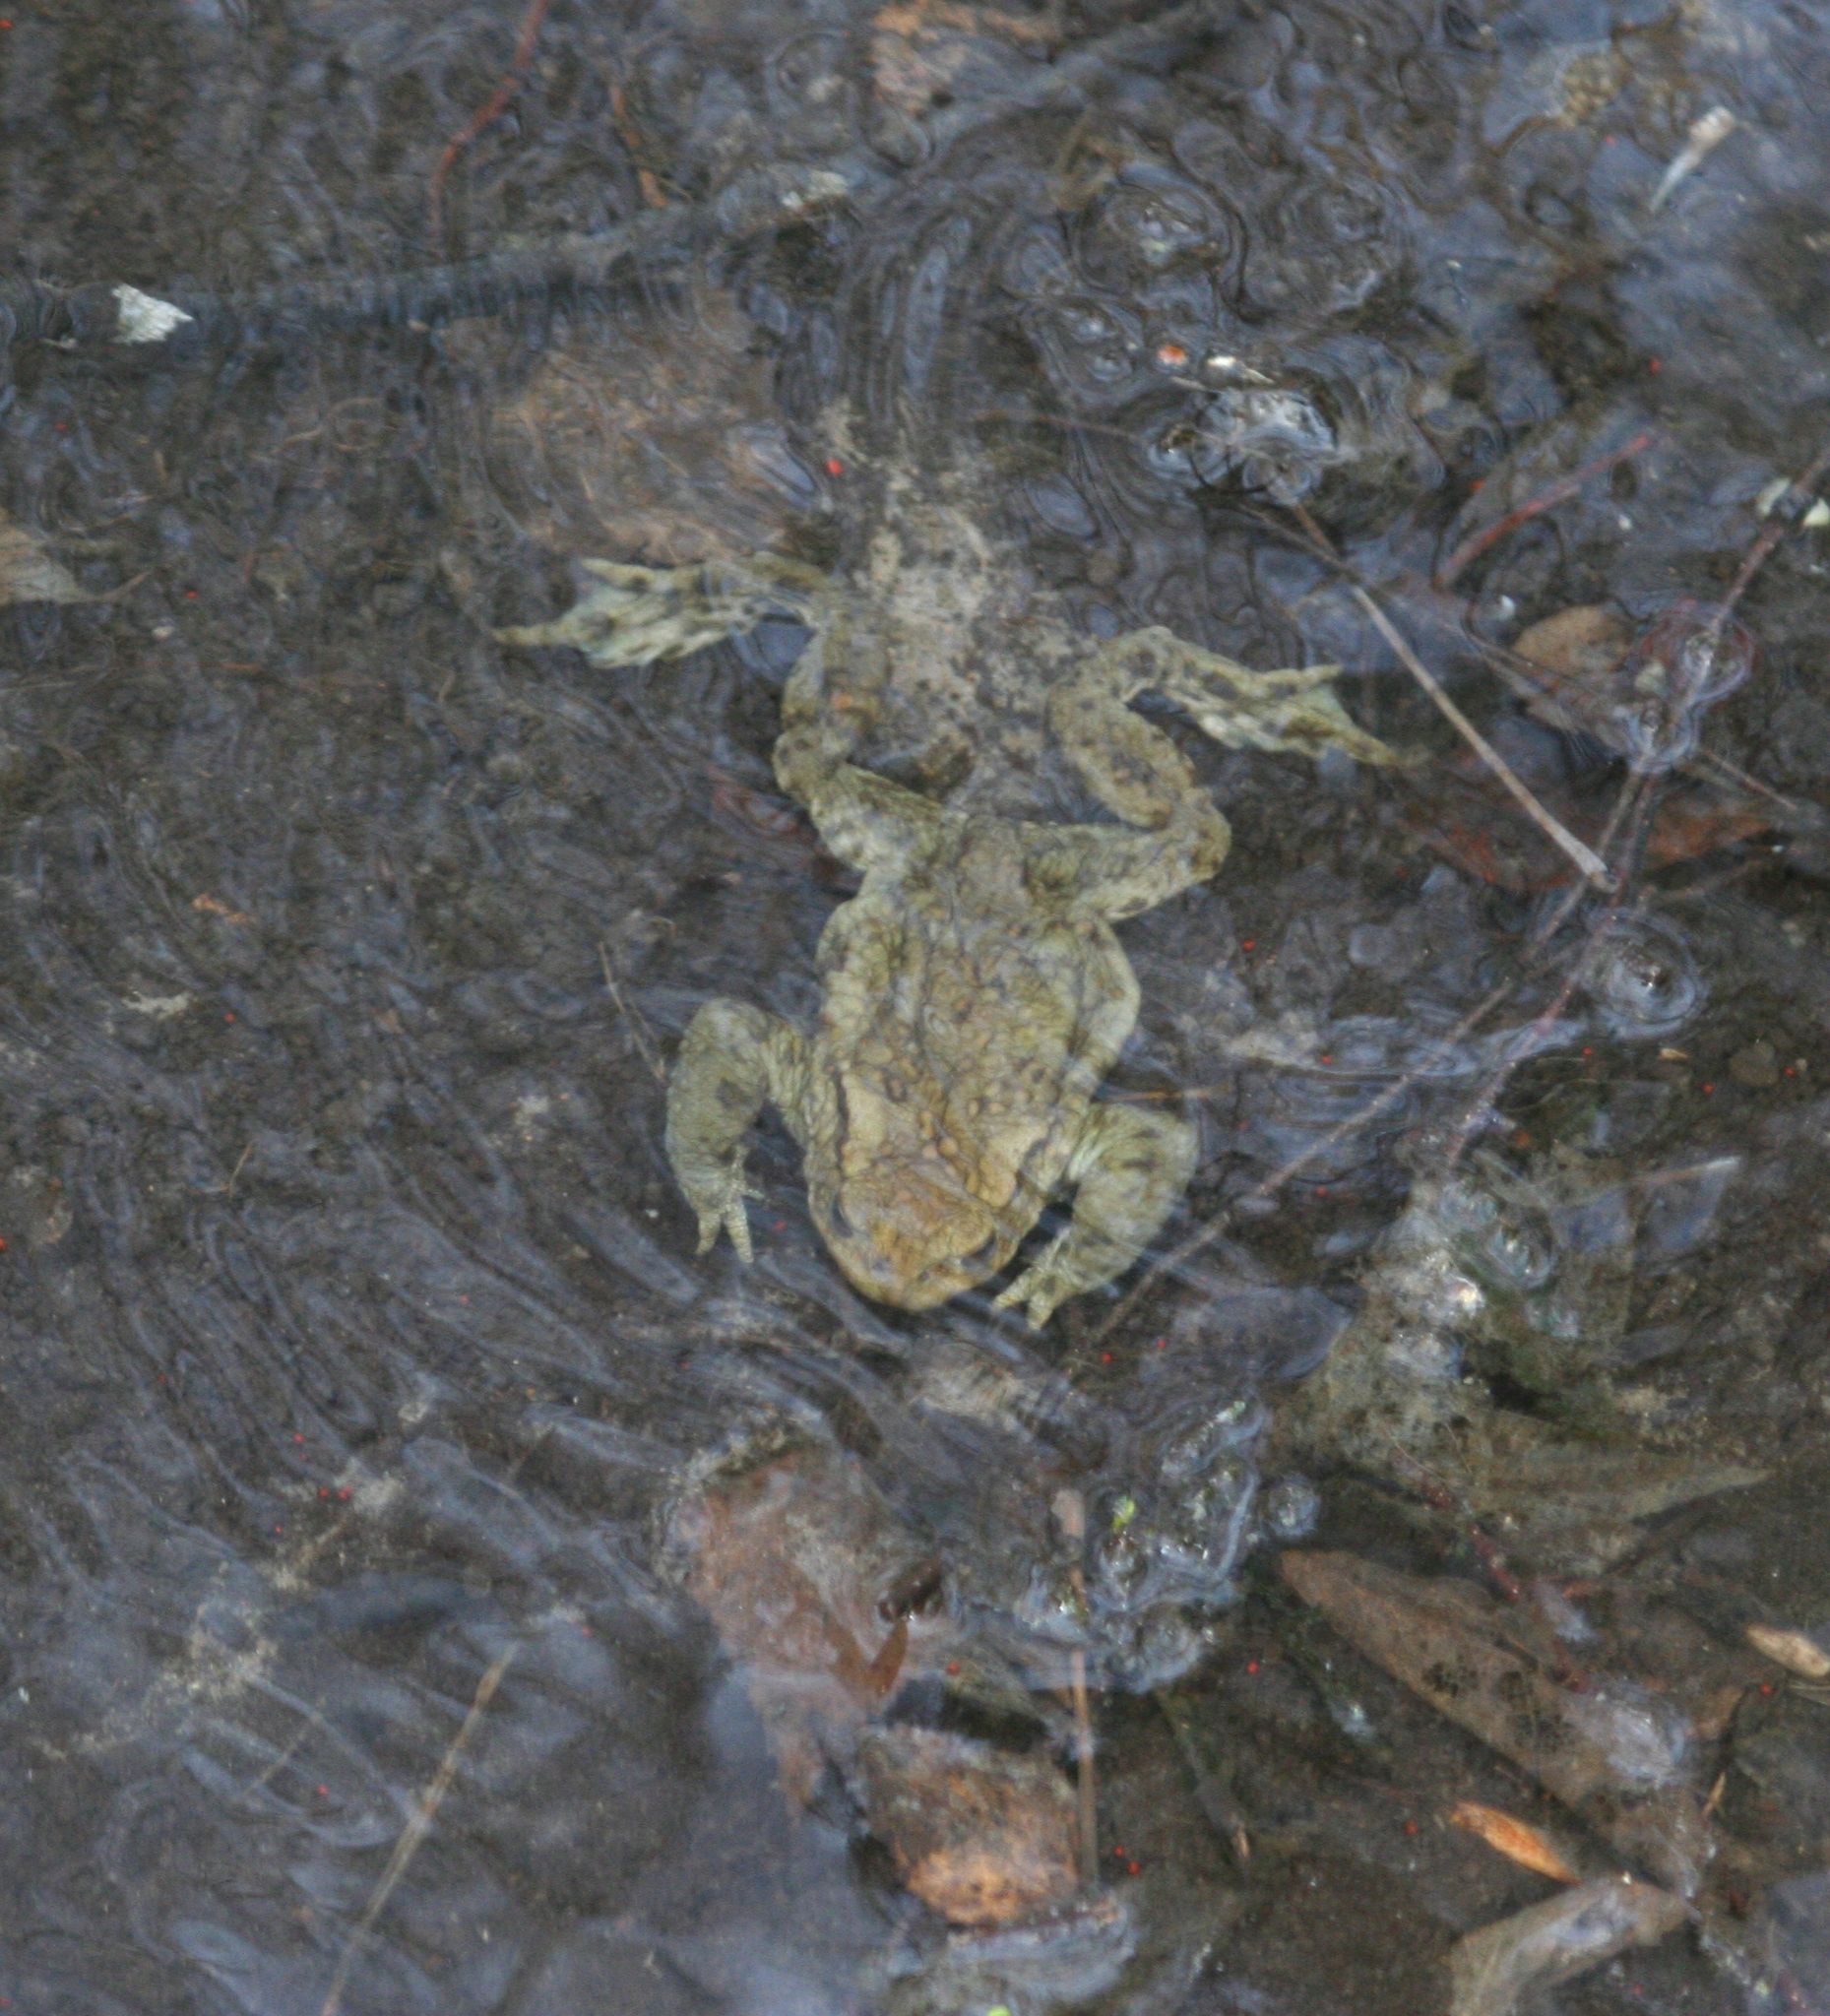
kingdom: Animalia
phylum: Chordata
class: Amphibia
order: Anura
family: Bufonidae
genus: Bufo
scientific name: Bufo bufo
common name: Common toad
